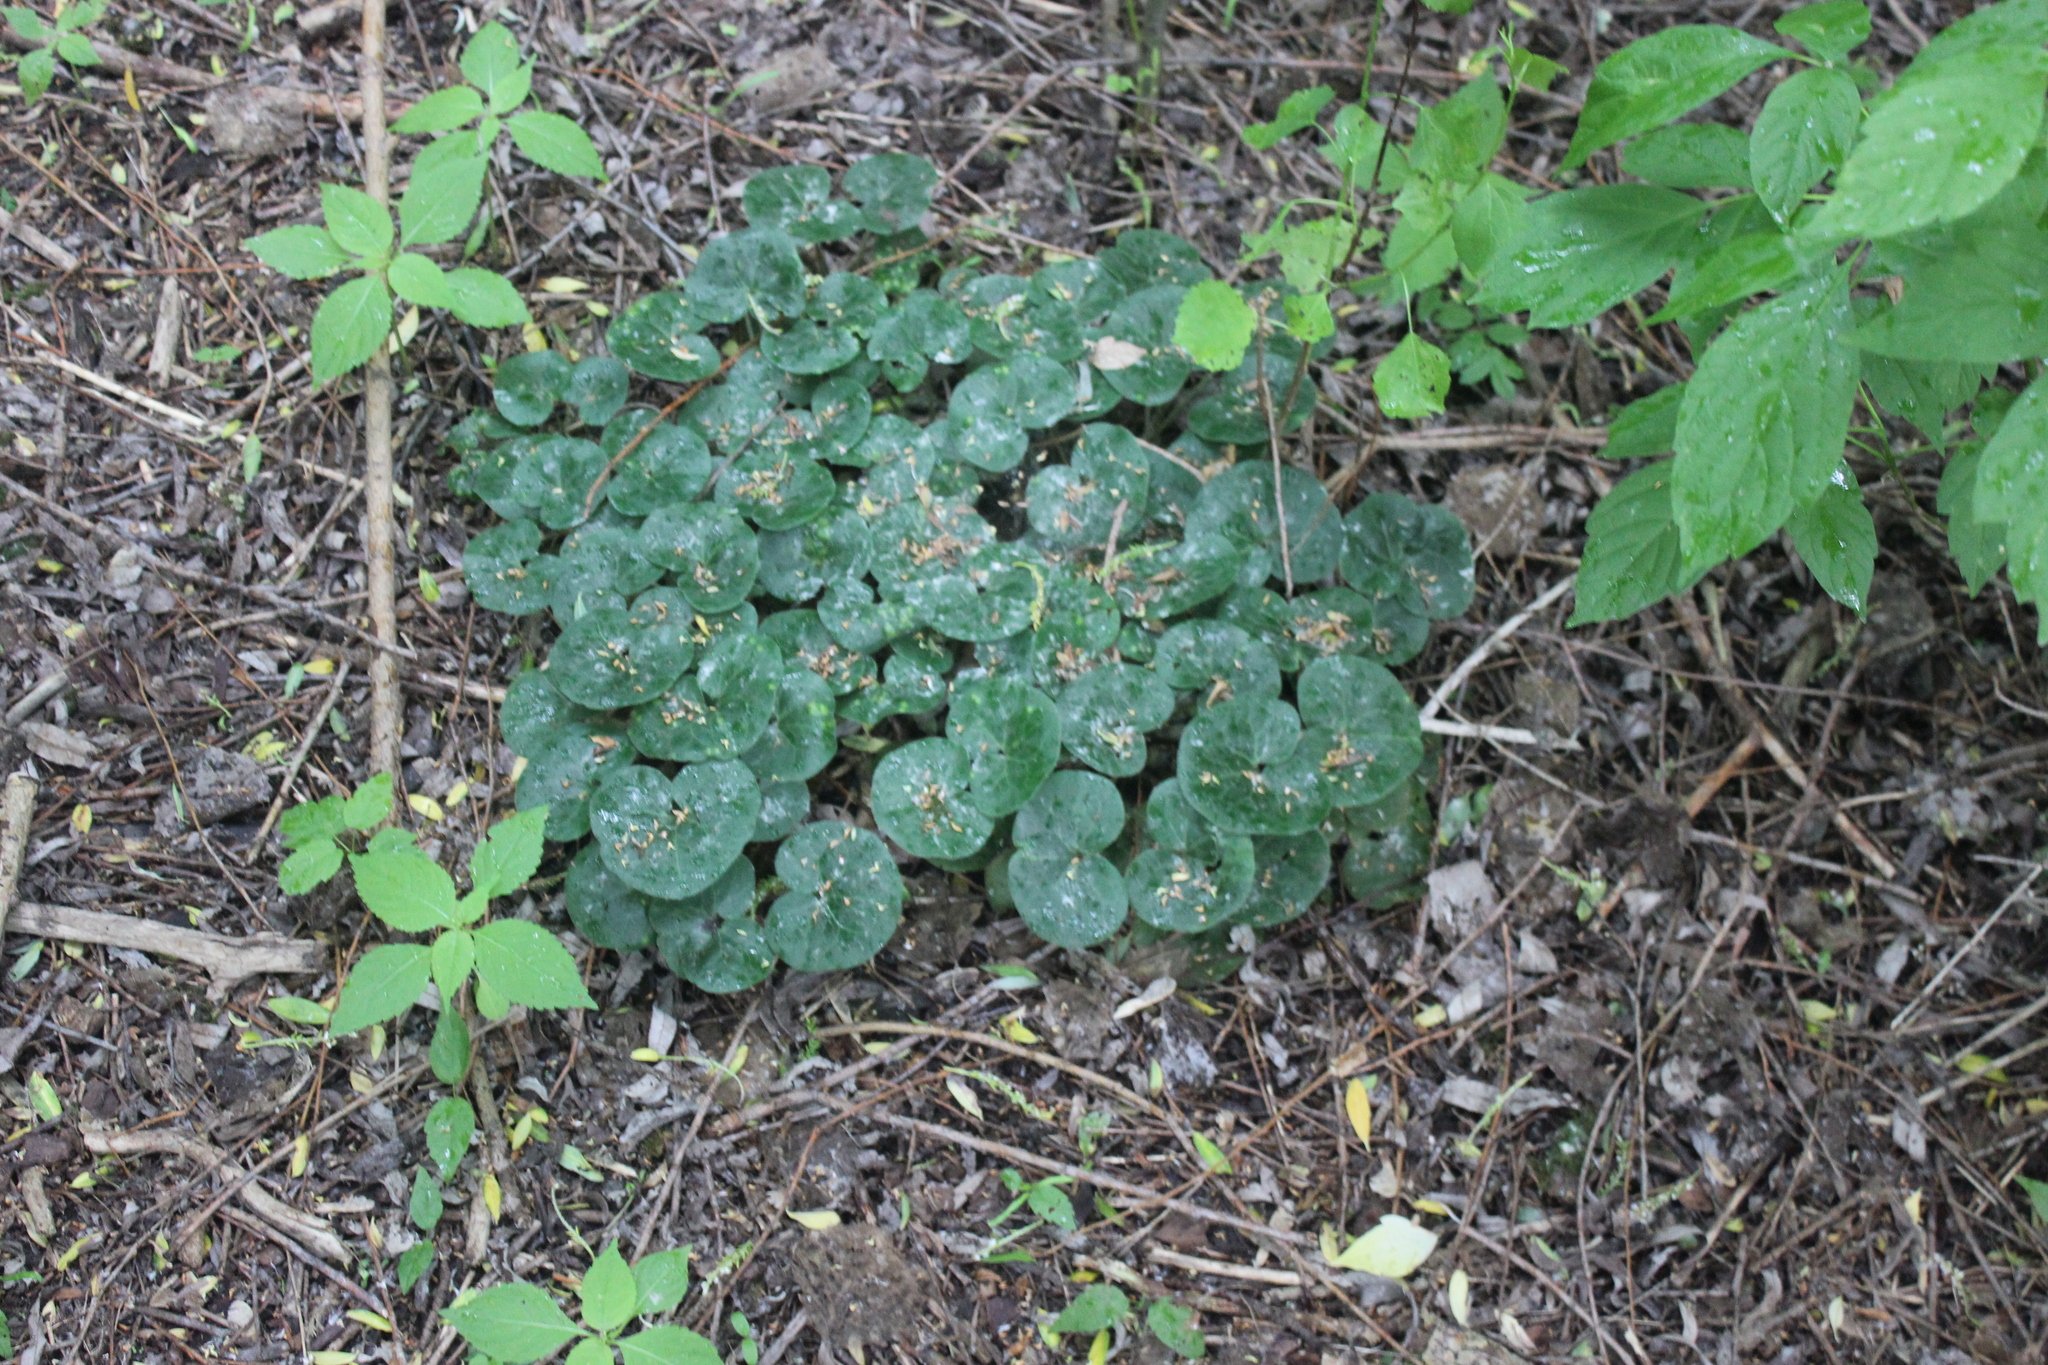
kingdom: Plantae
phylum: Tracheophyta
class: Magnoliopsida
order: Piperales
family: Aristolochiaceae
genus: Asarum
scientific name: Asarum europaeum
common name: Asarabacca
